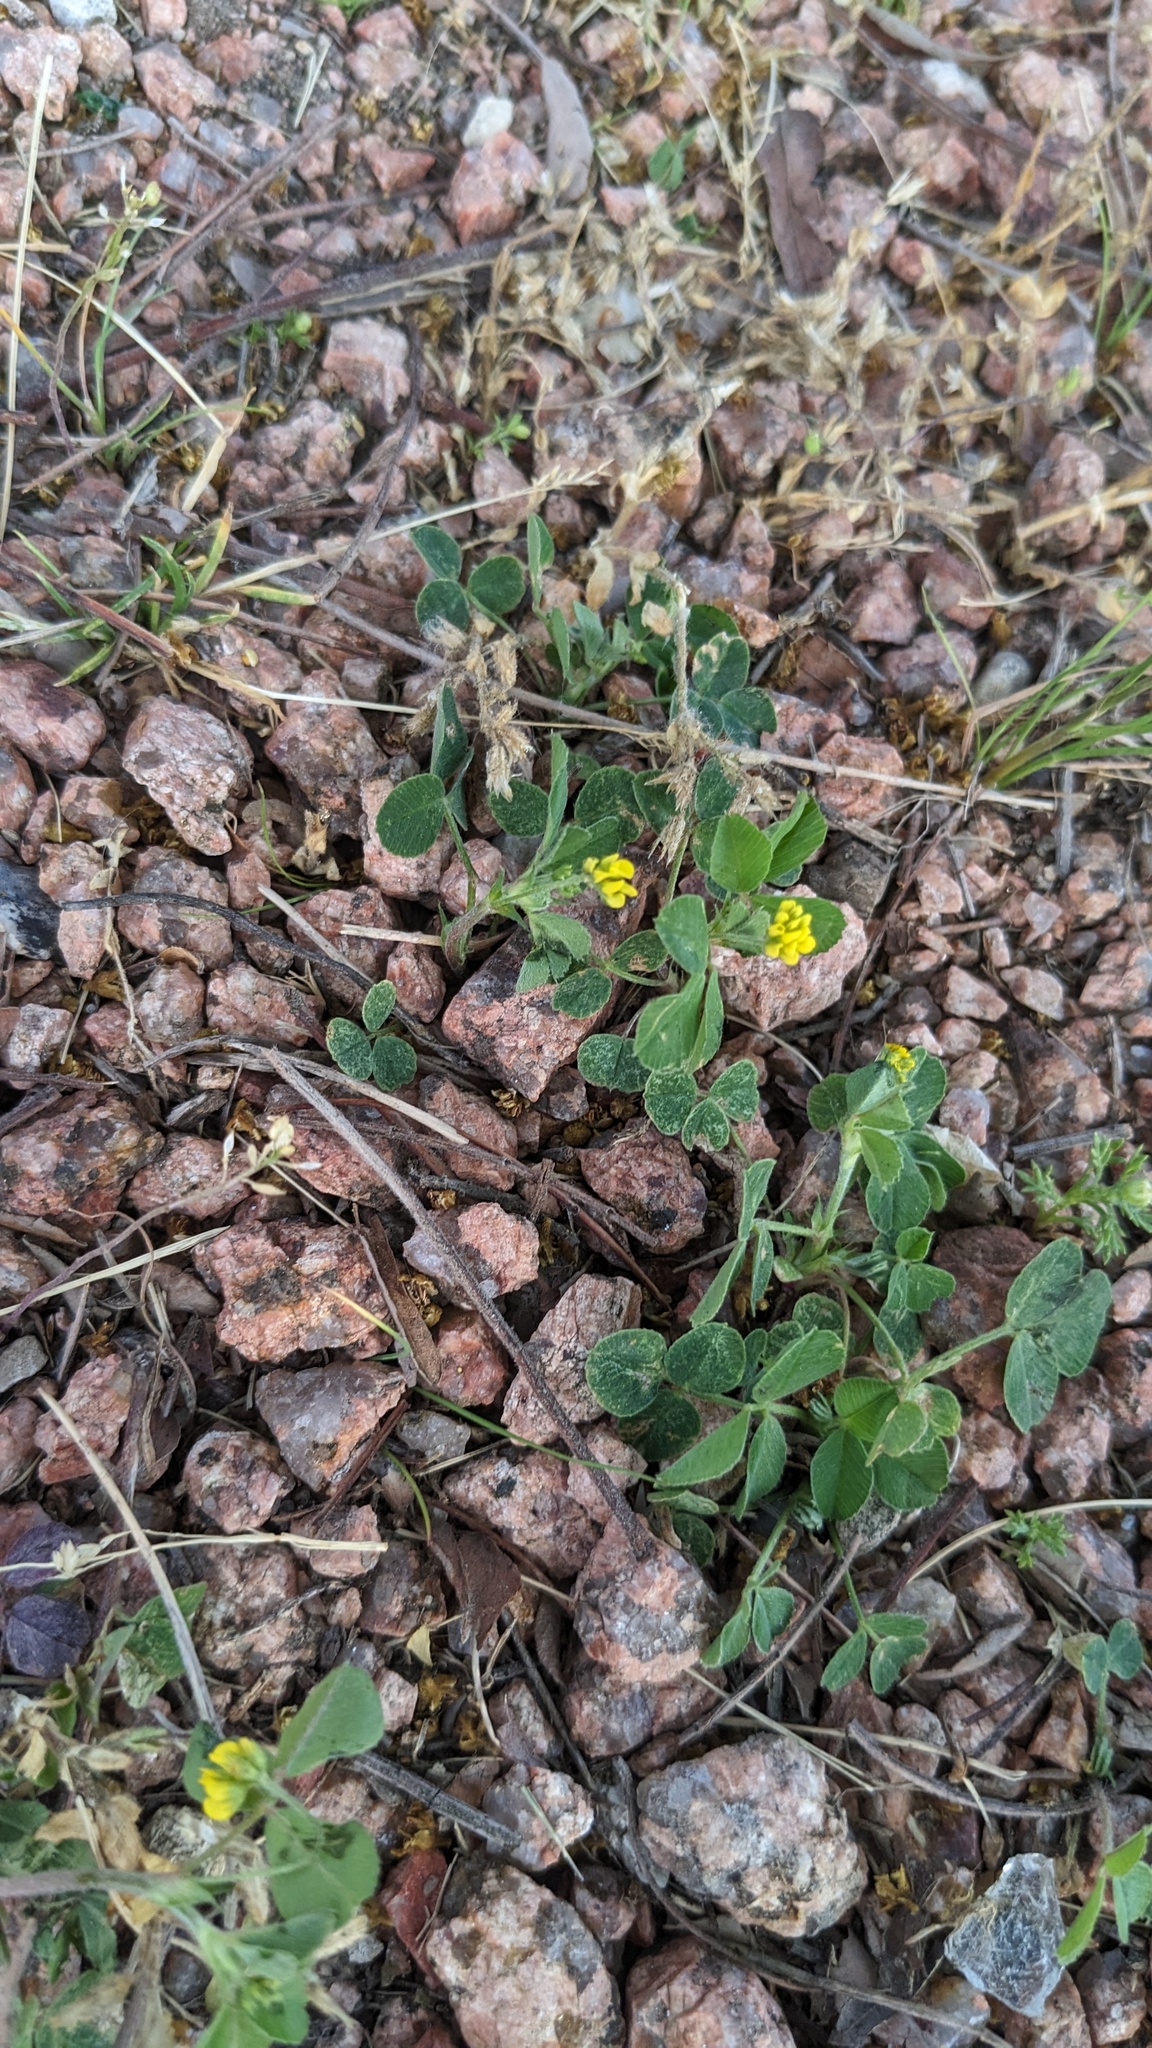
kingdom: Plantae
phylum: Tracheophyta
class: Magnoliopsida
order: Fabales
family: Fabaceae
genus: Medicago
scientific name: Medicago lupulina
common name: Black medick
